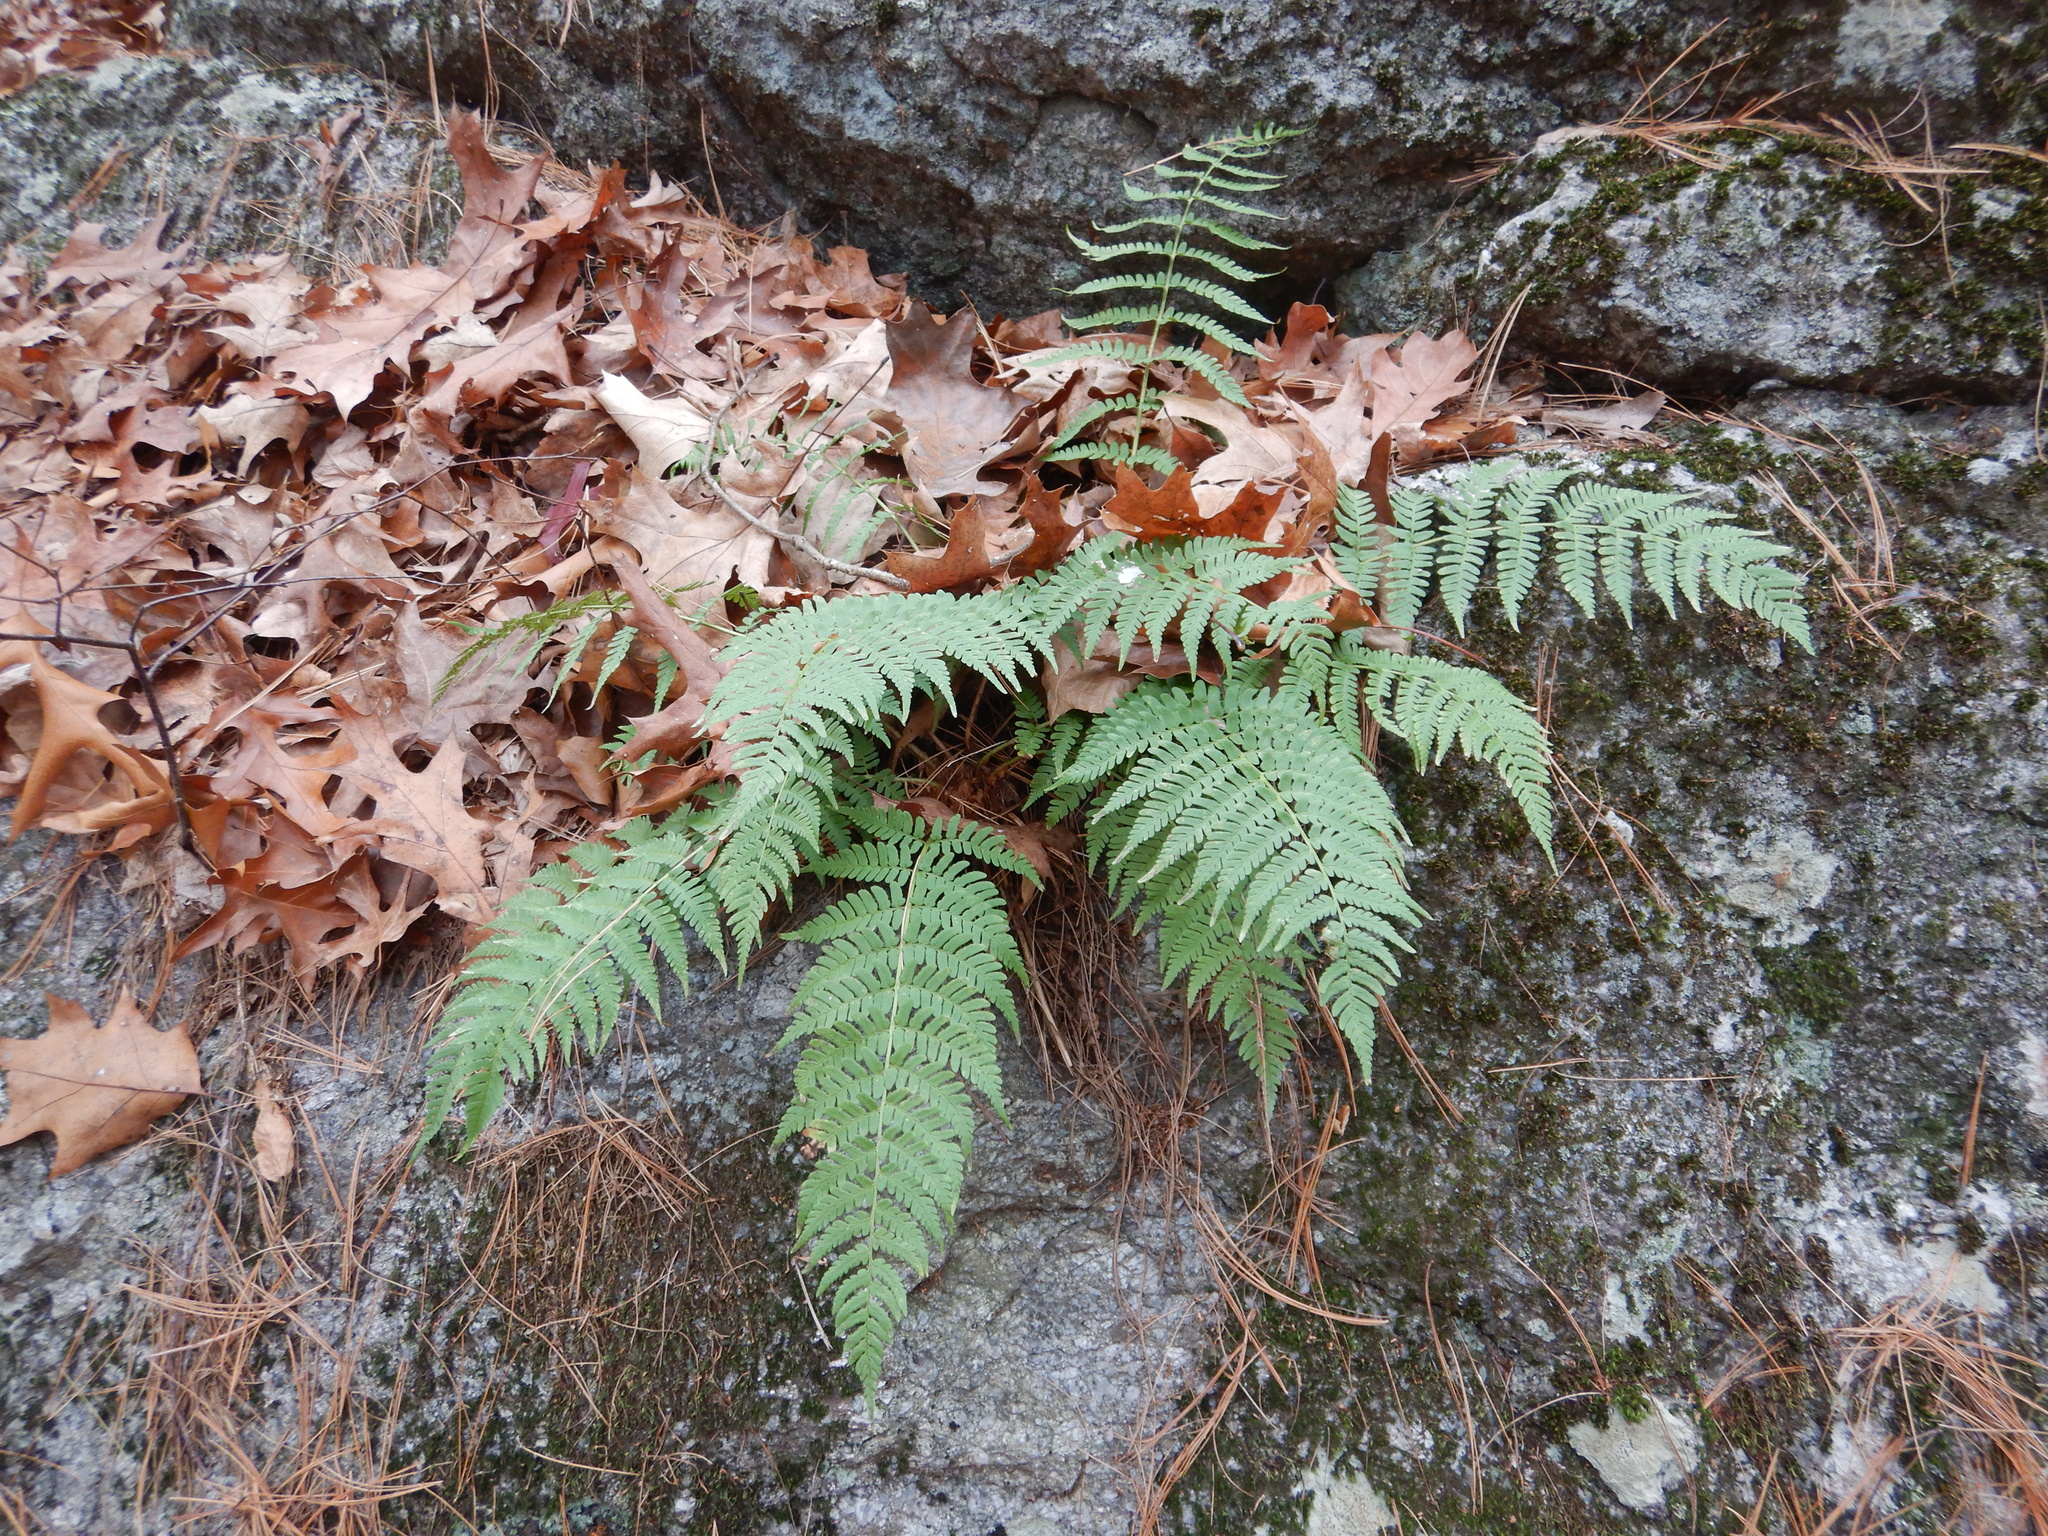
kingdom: Plantae
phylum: Tracheophyta
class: Polypodiopsida
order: Polypodiales
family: Dryopteridaceae
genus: Dryopteris
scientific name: Dryopteris marginalis
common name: Marginal wood fern
